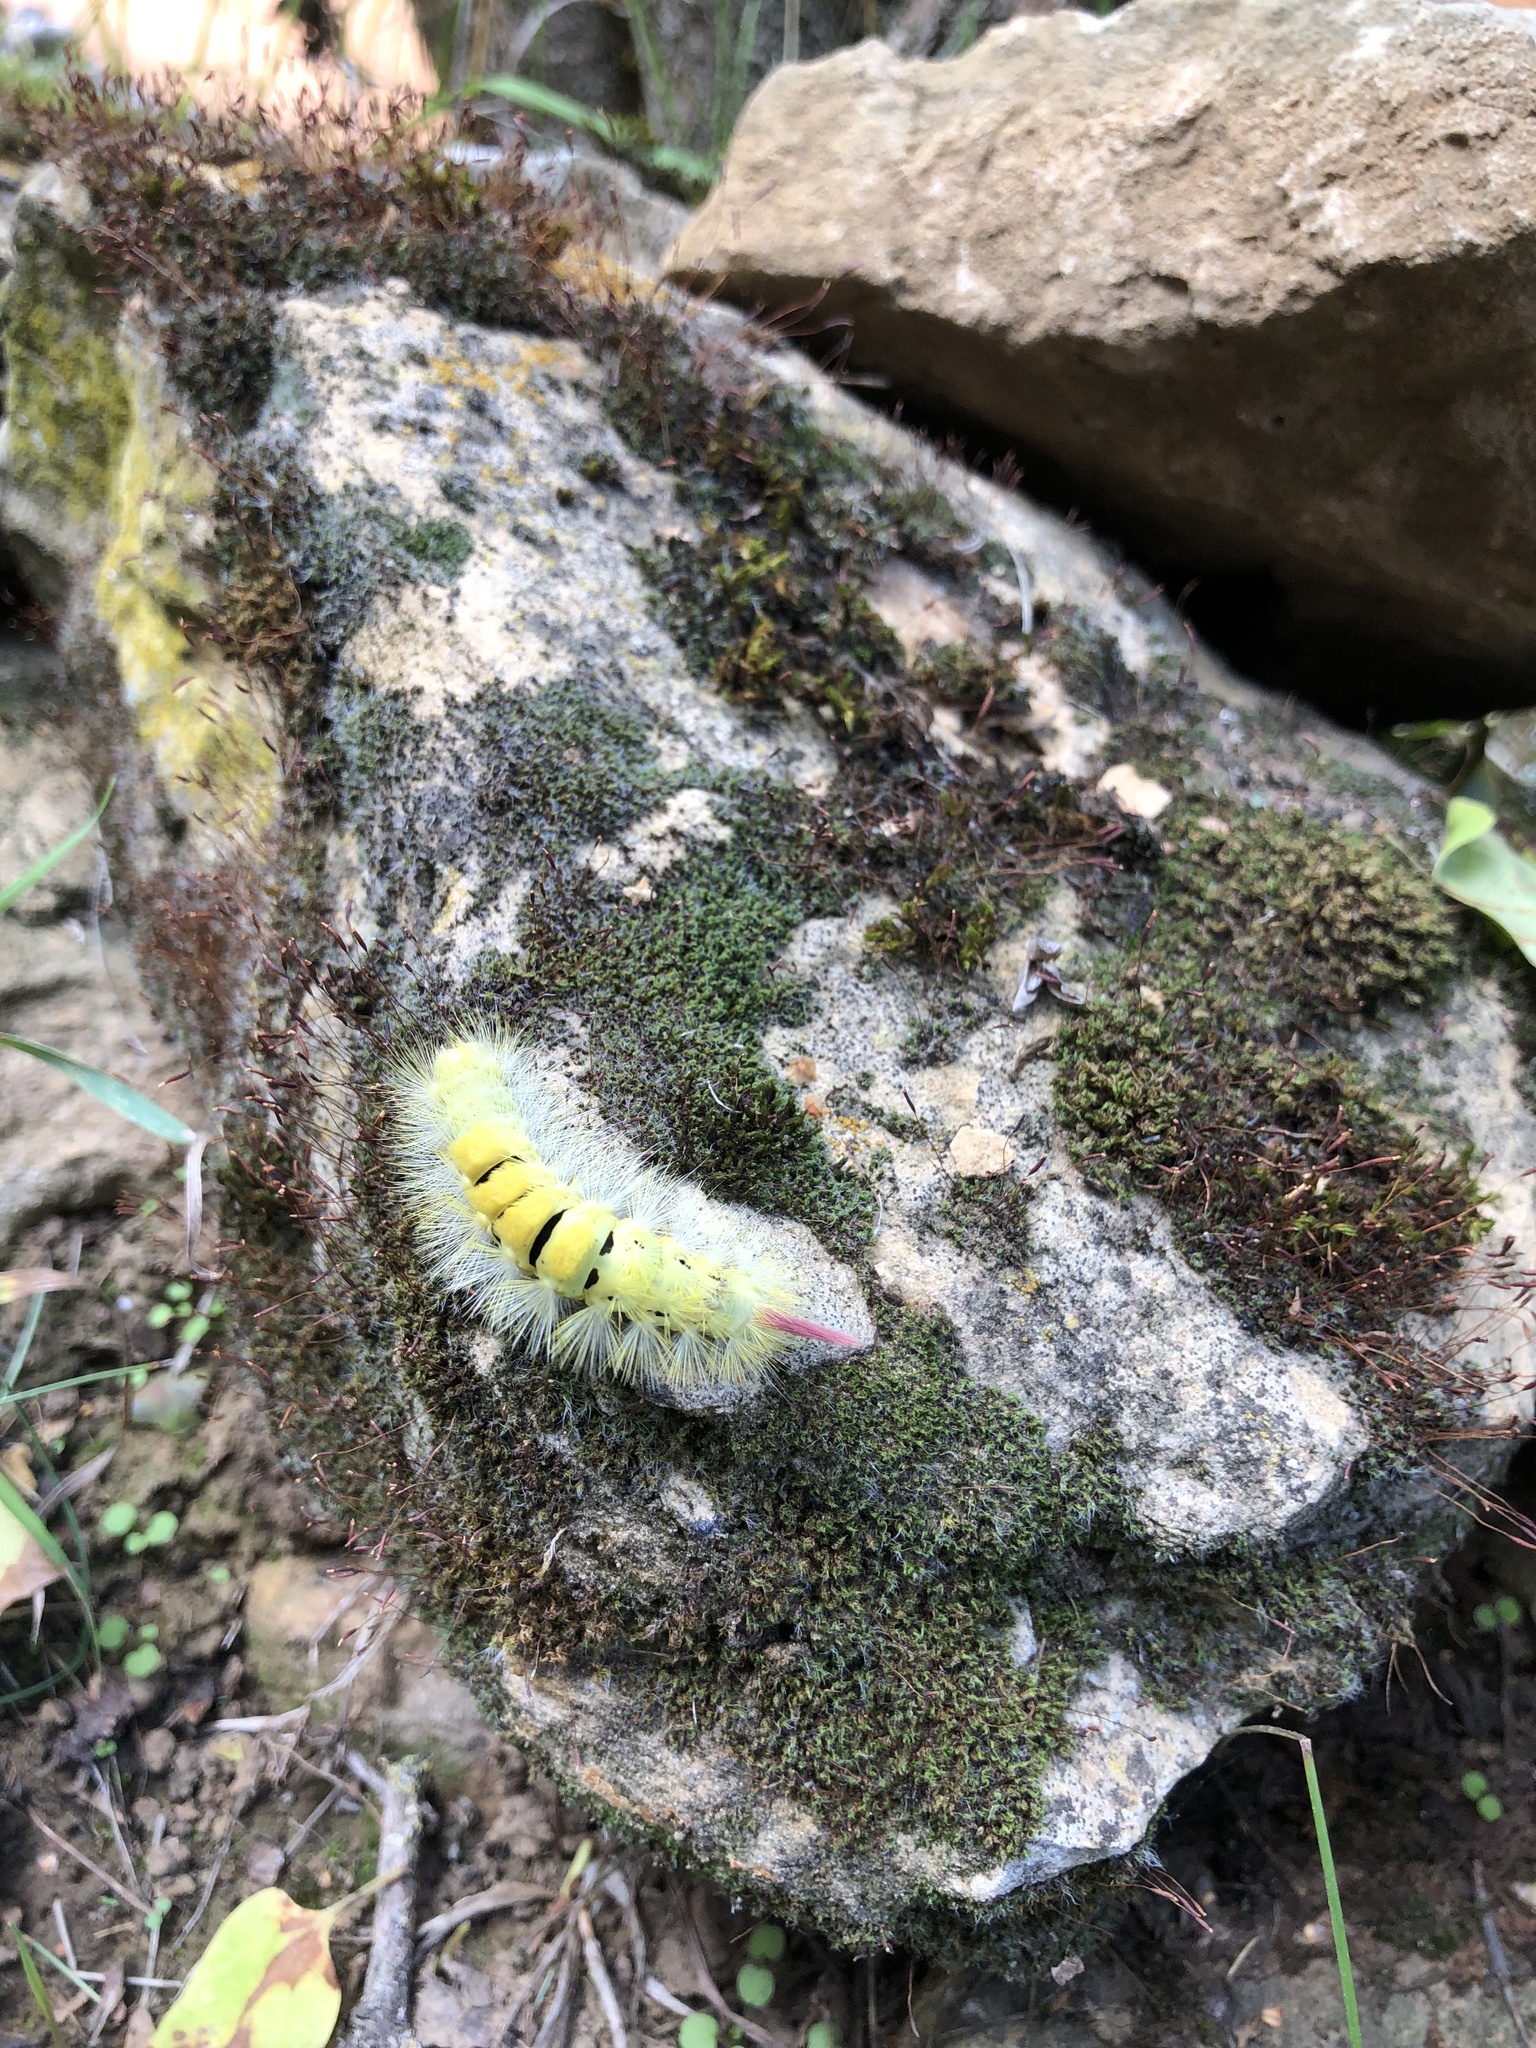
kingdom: Animalia
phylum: Arthropoda
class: Insecta
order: Lepidoptera
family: Erebidae
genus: Calliteara
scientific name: Calliteara pudibunda
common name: Pale tussock
